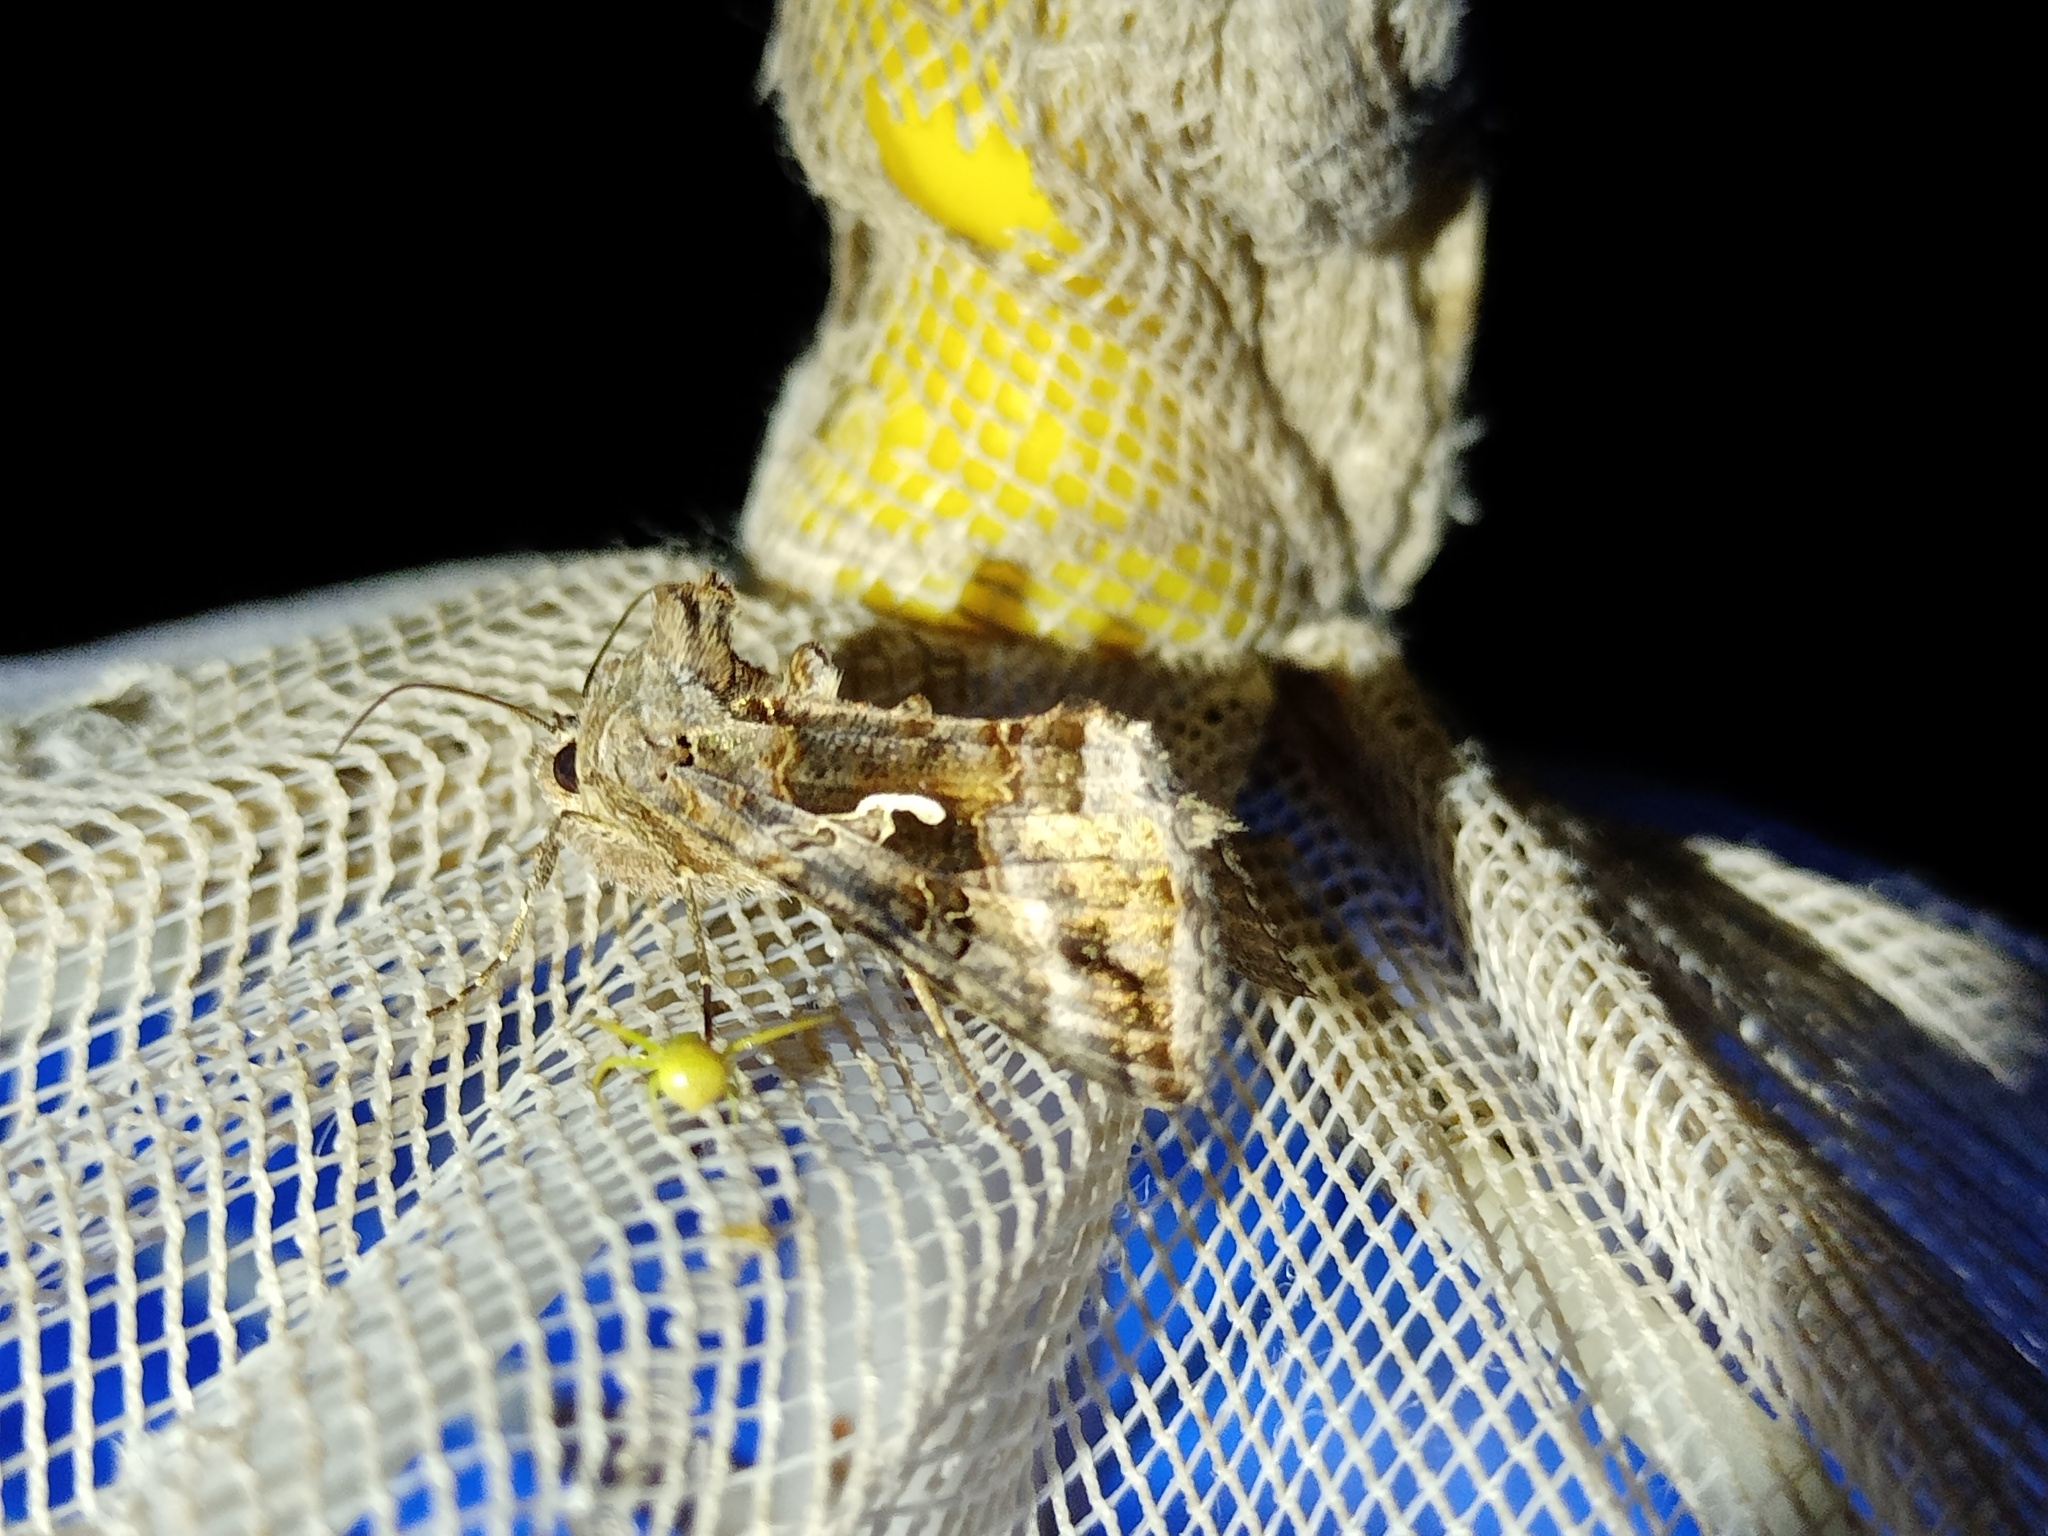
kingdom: Animalia
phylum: Arthropoda
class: Insecta
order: Lepidoptera
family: Noctuidae
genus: Autographa
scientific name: Autographa gamma
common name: Silver y
